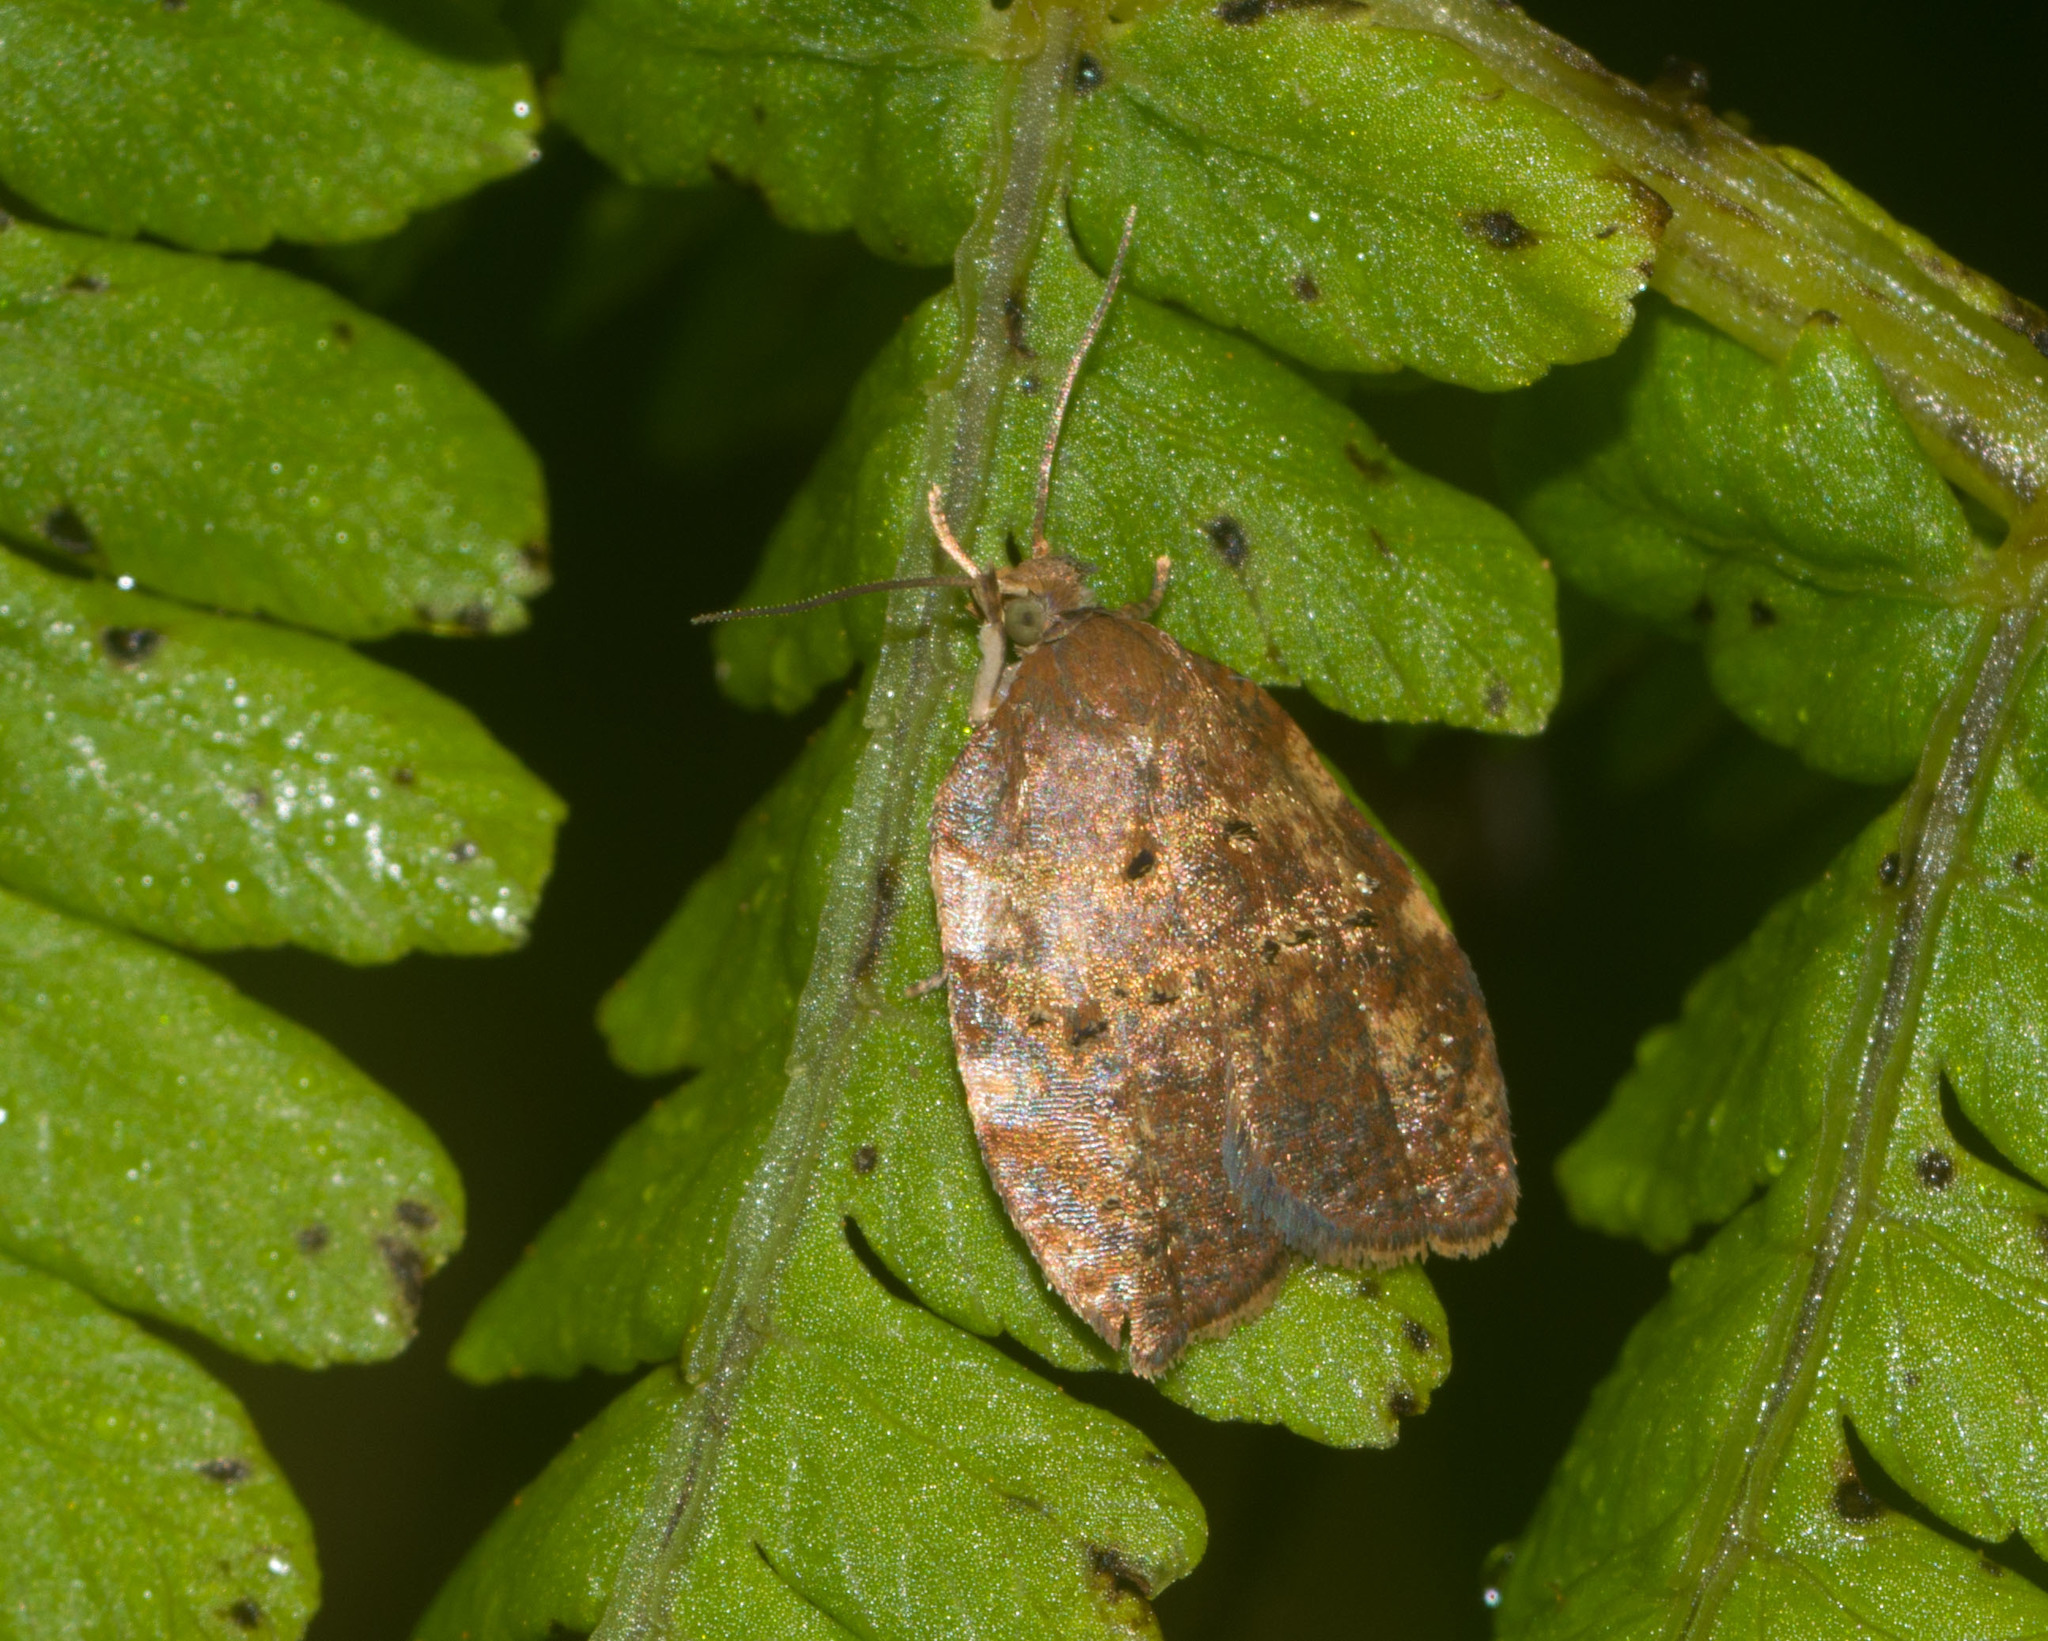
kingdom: Animalia
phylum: Arthropoda
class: Insecta
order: Lepidoptera
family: Tortricidae
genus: Acleris
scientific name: Acleris zimmermani
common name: Tortricid moth
